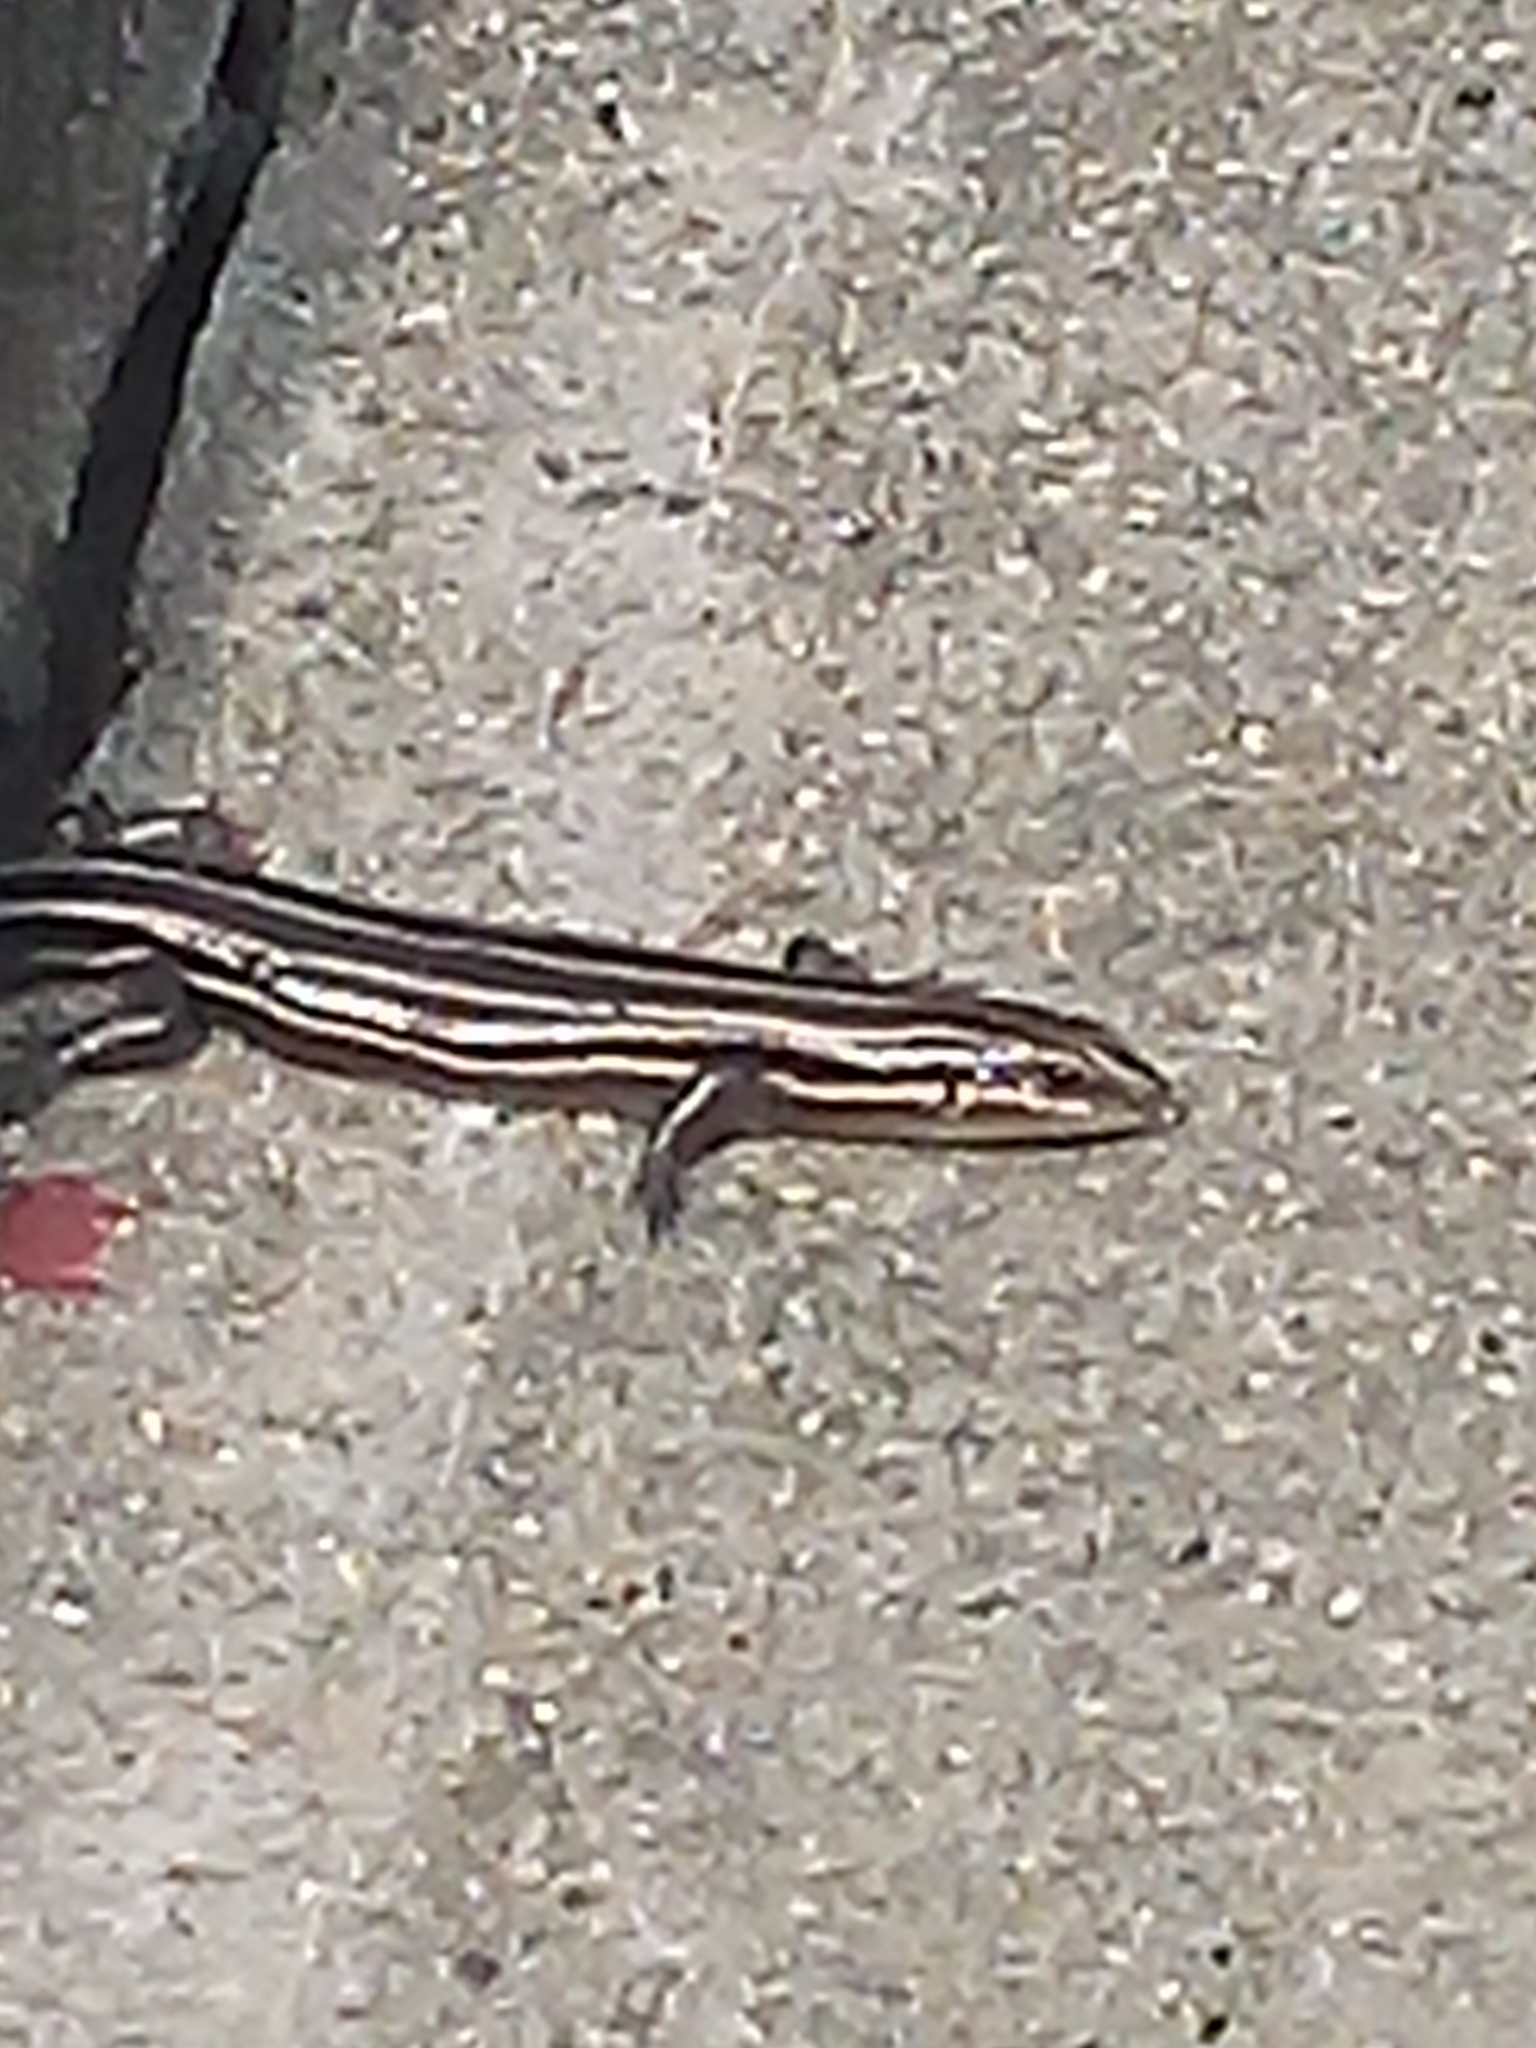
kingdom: Animalia
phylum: Chordata
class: Squamata
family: Scincidae
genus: Plestiodon
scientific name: Plestiodon fasciatus
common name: Five-lined skink
